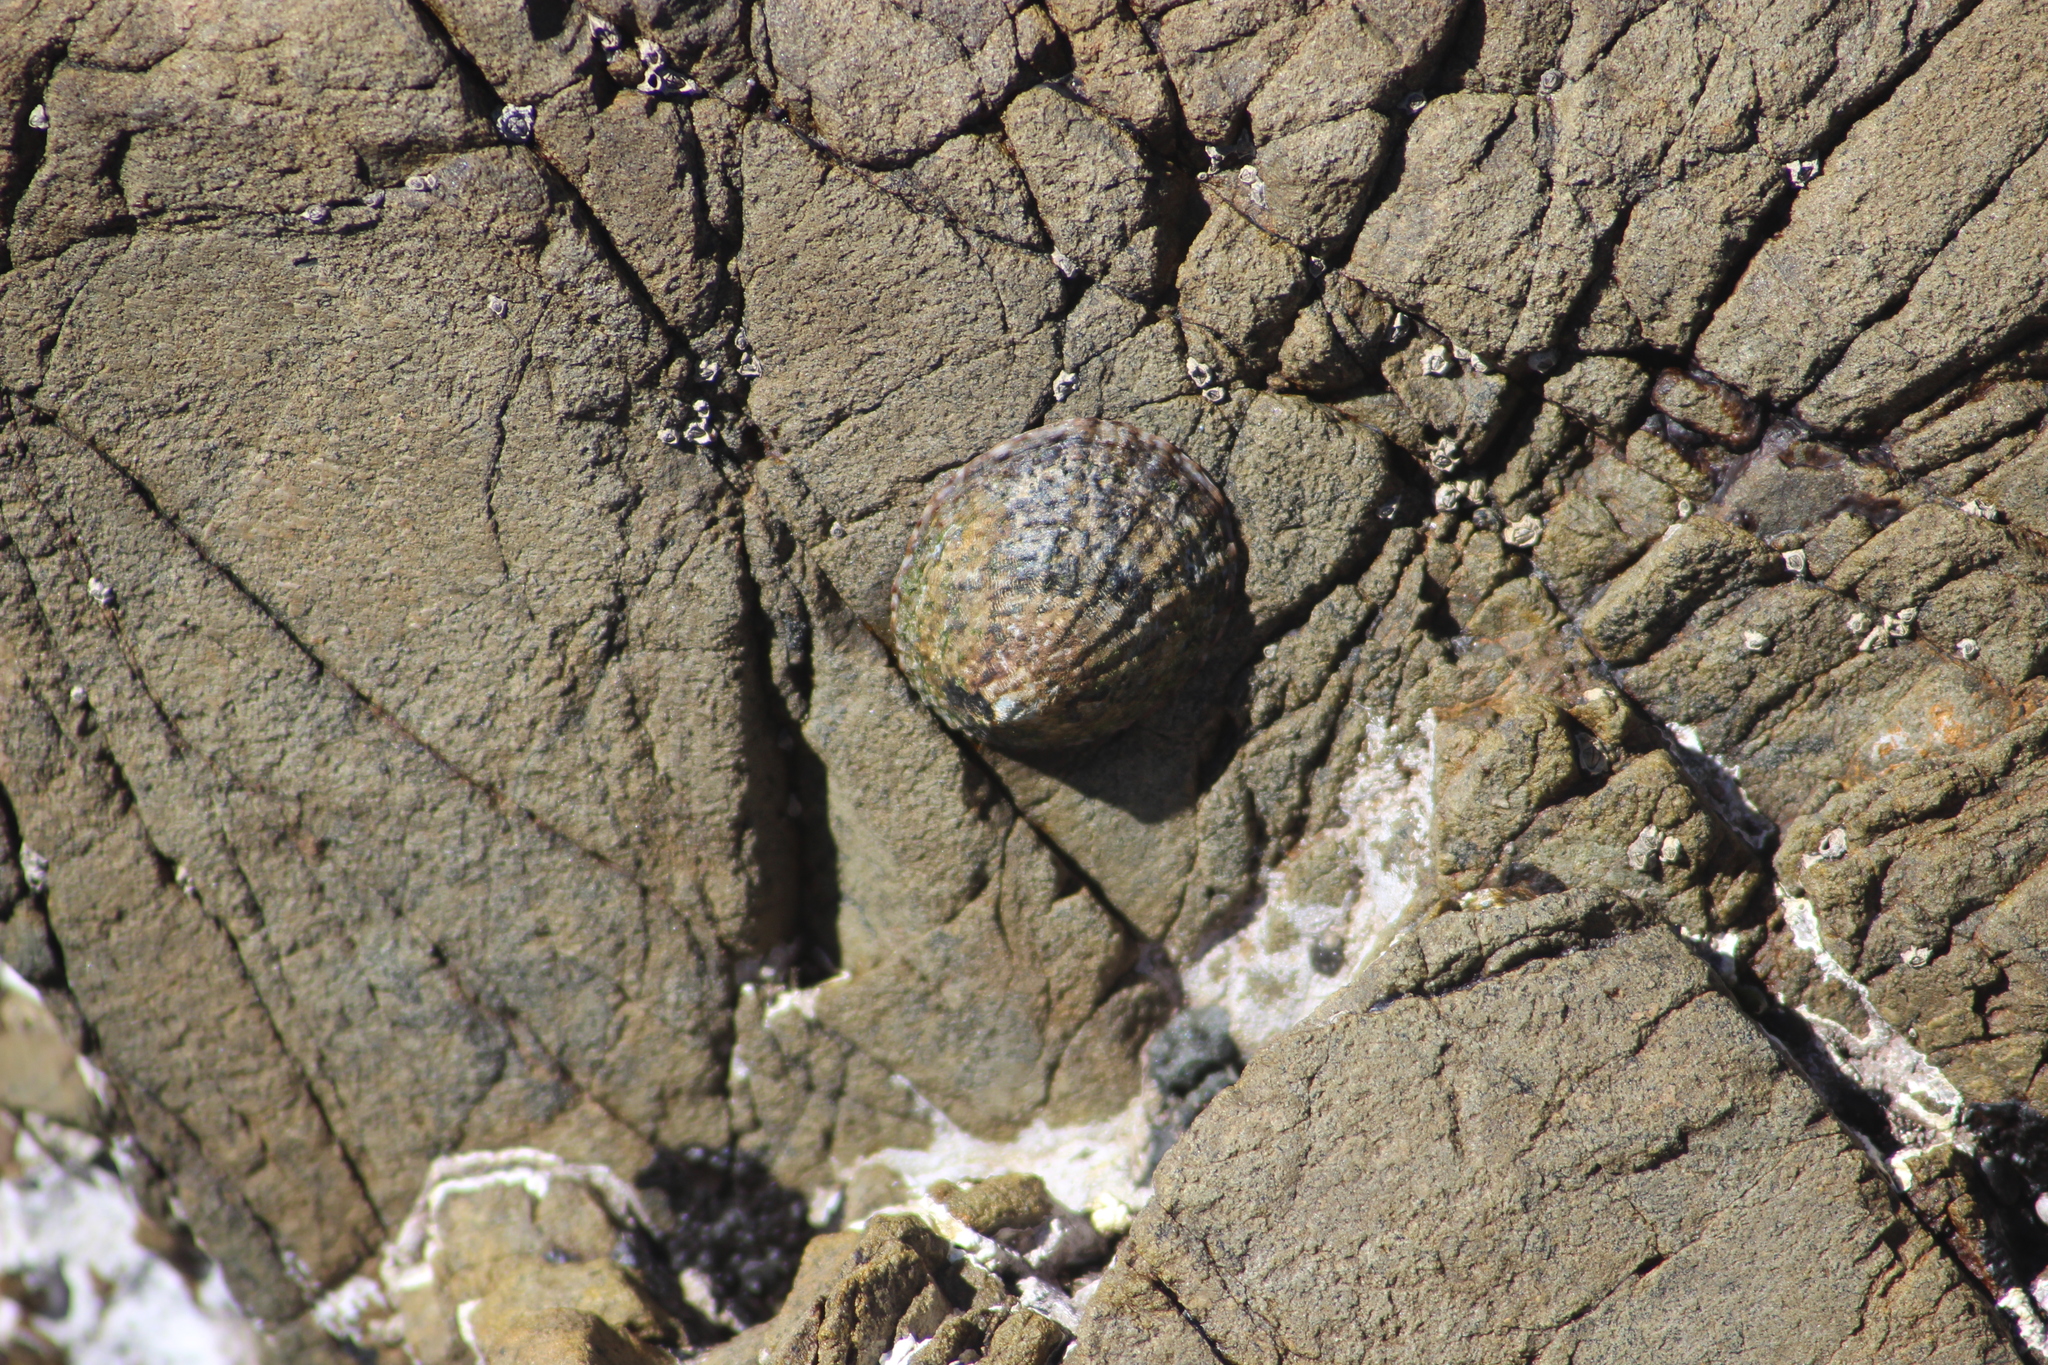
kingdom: Animalia
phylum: Mollusca
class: Gastropoda
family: Nacellidae
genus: Cellana
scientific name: Cellana denticulata
